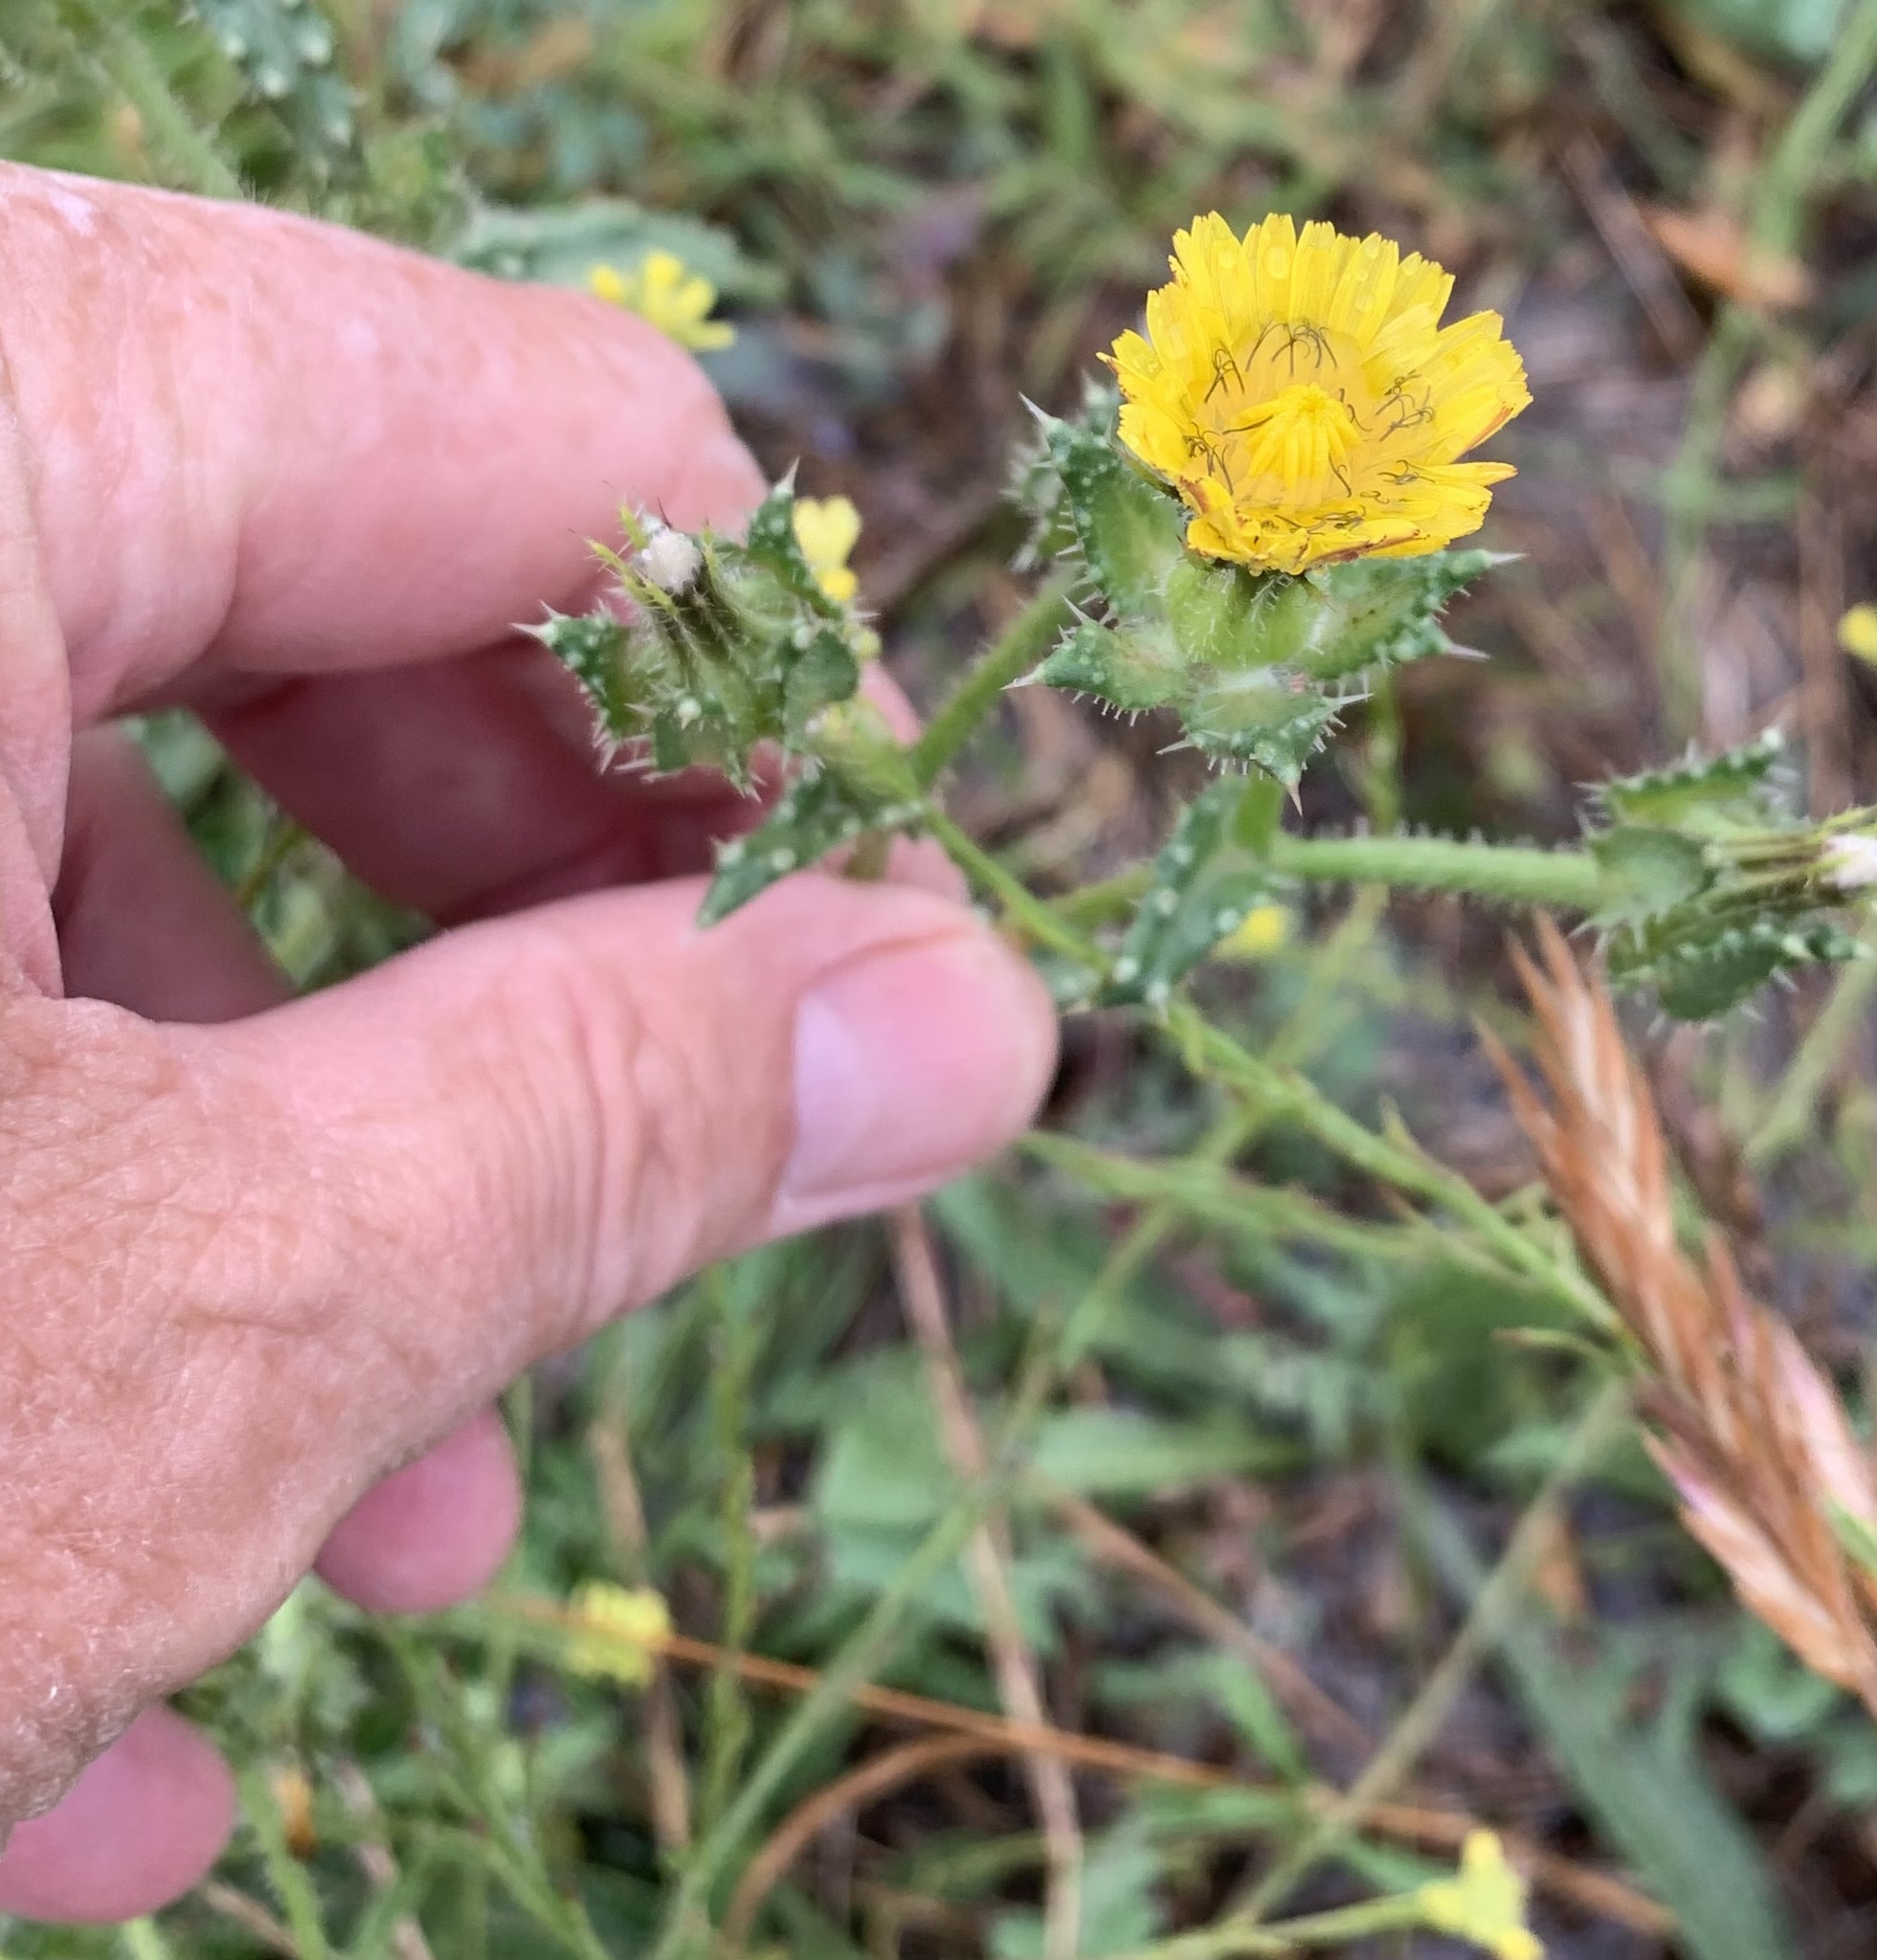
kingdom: Plantae
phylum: Tracheophyta
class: Magnoliopsida
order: Asterales
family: Asteraceae
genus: Helminthotheca
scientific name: Helminthotheca echioides
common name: Ox-tongue
